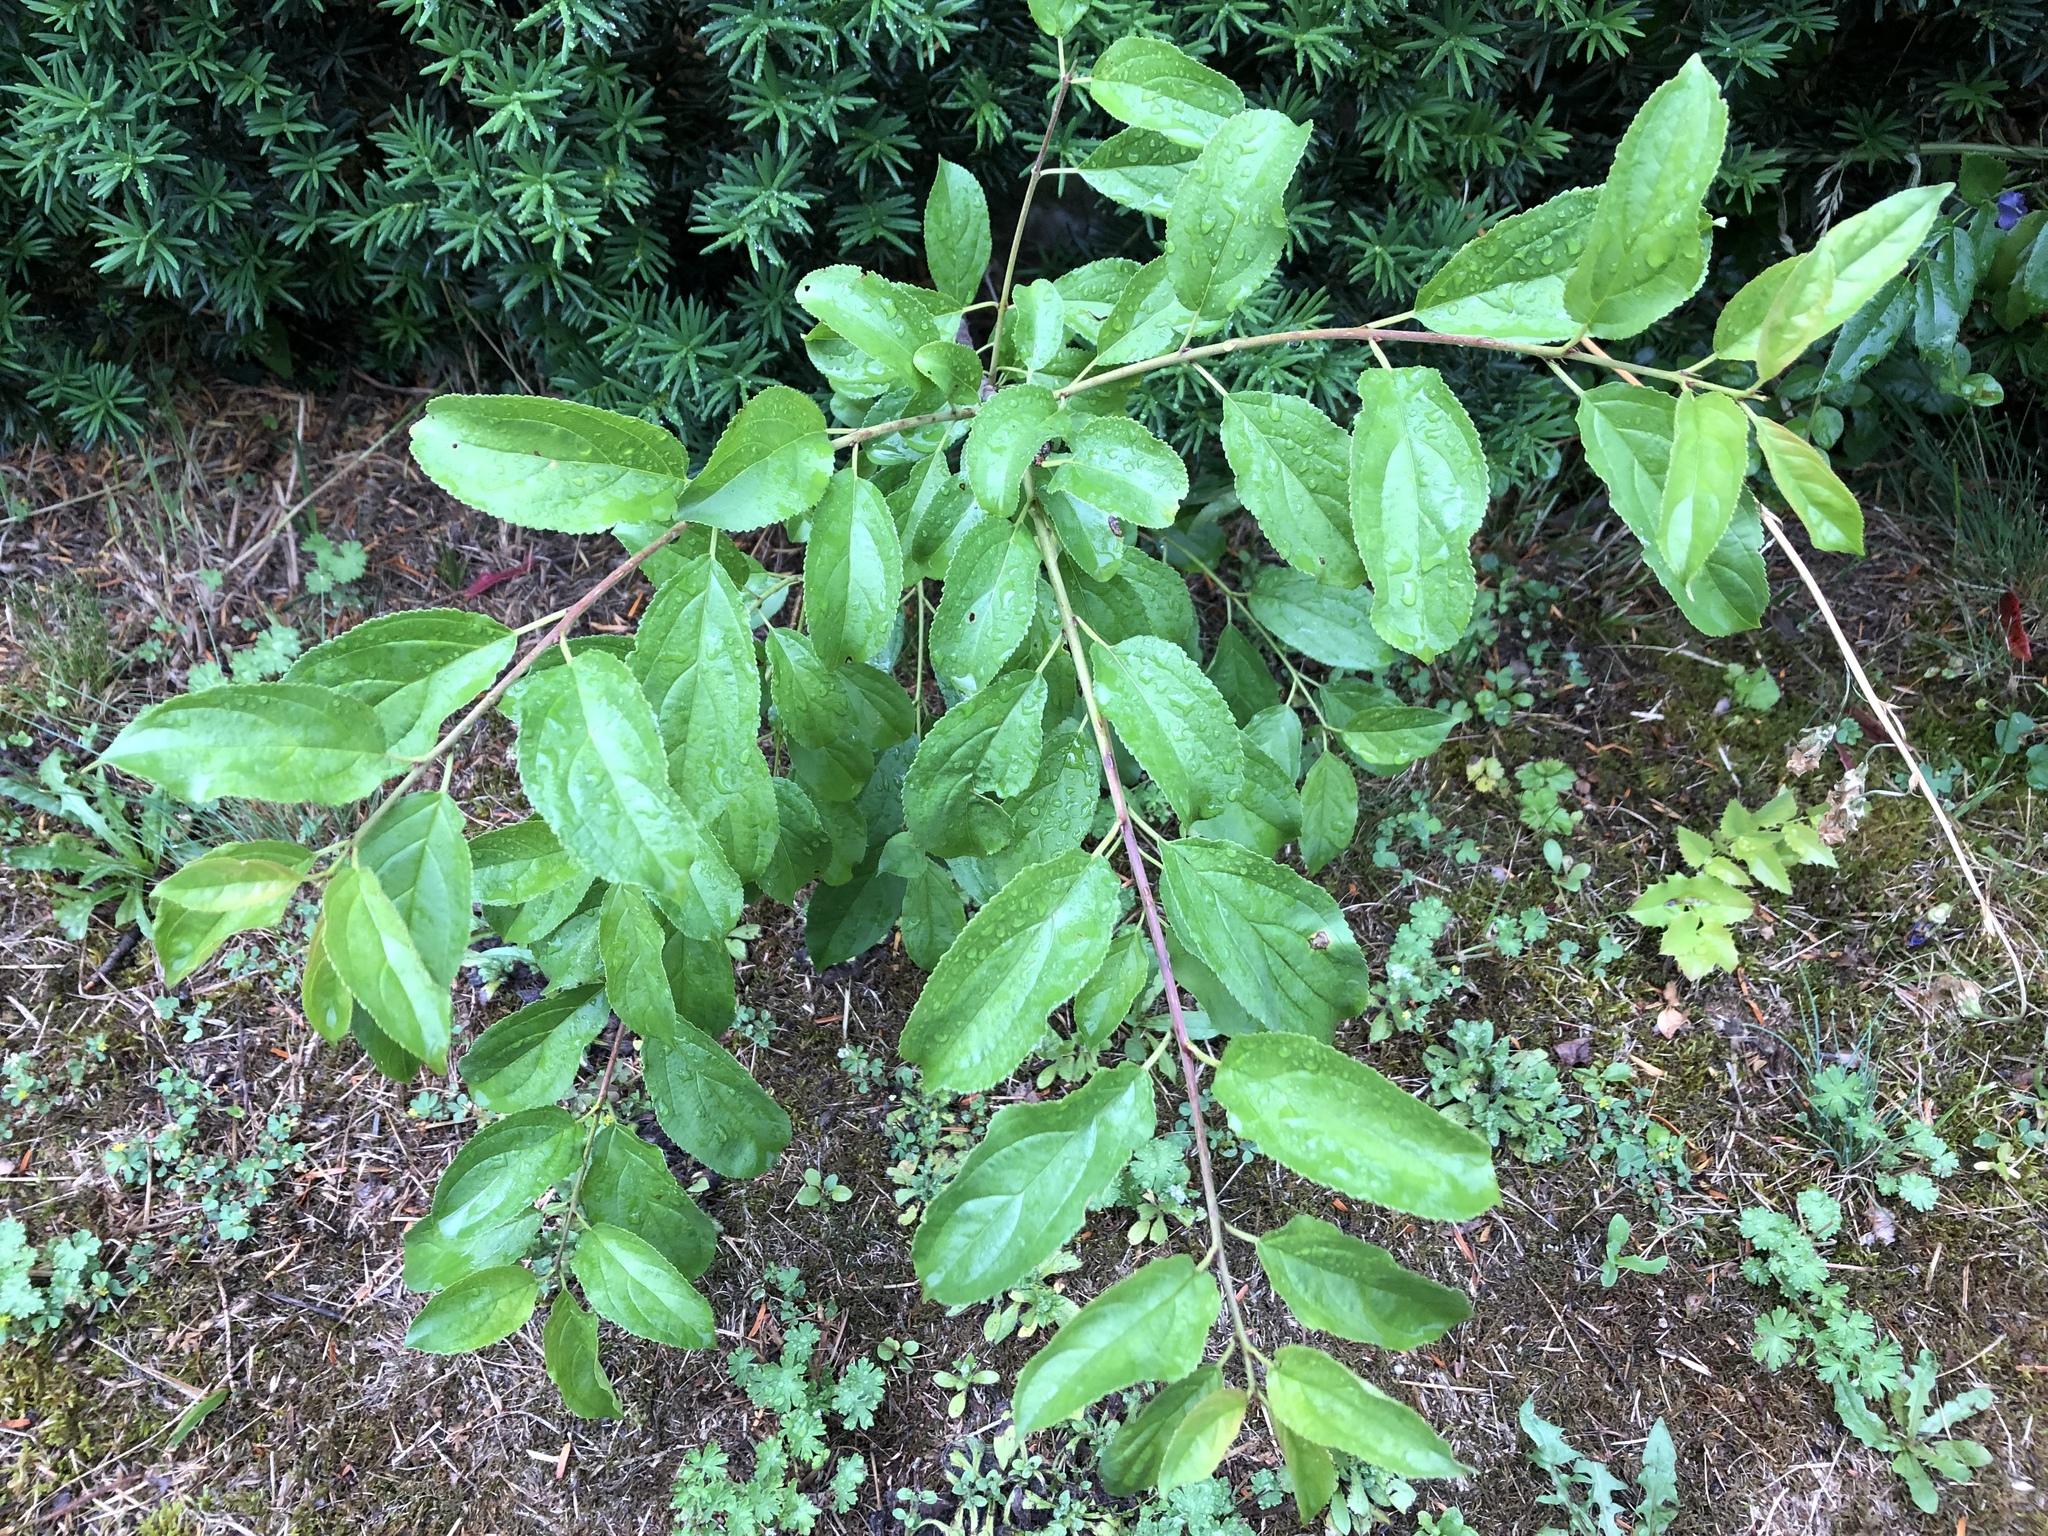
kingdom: Plantae
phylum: Tracheophyta
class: Magnoliopsida
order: Rosales
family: Rhamnaceae
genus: Rhamnus
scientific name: Rhamnus cathartica
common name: Common buckthorn
